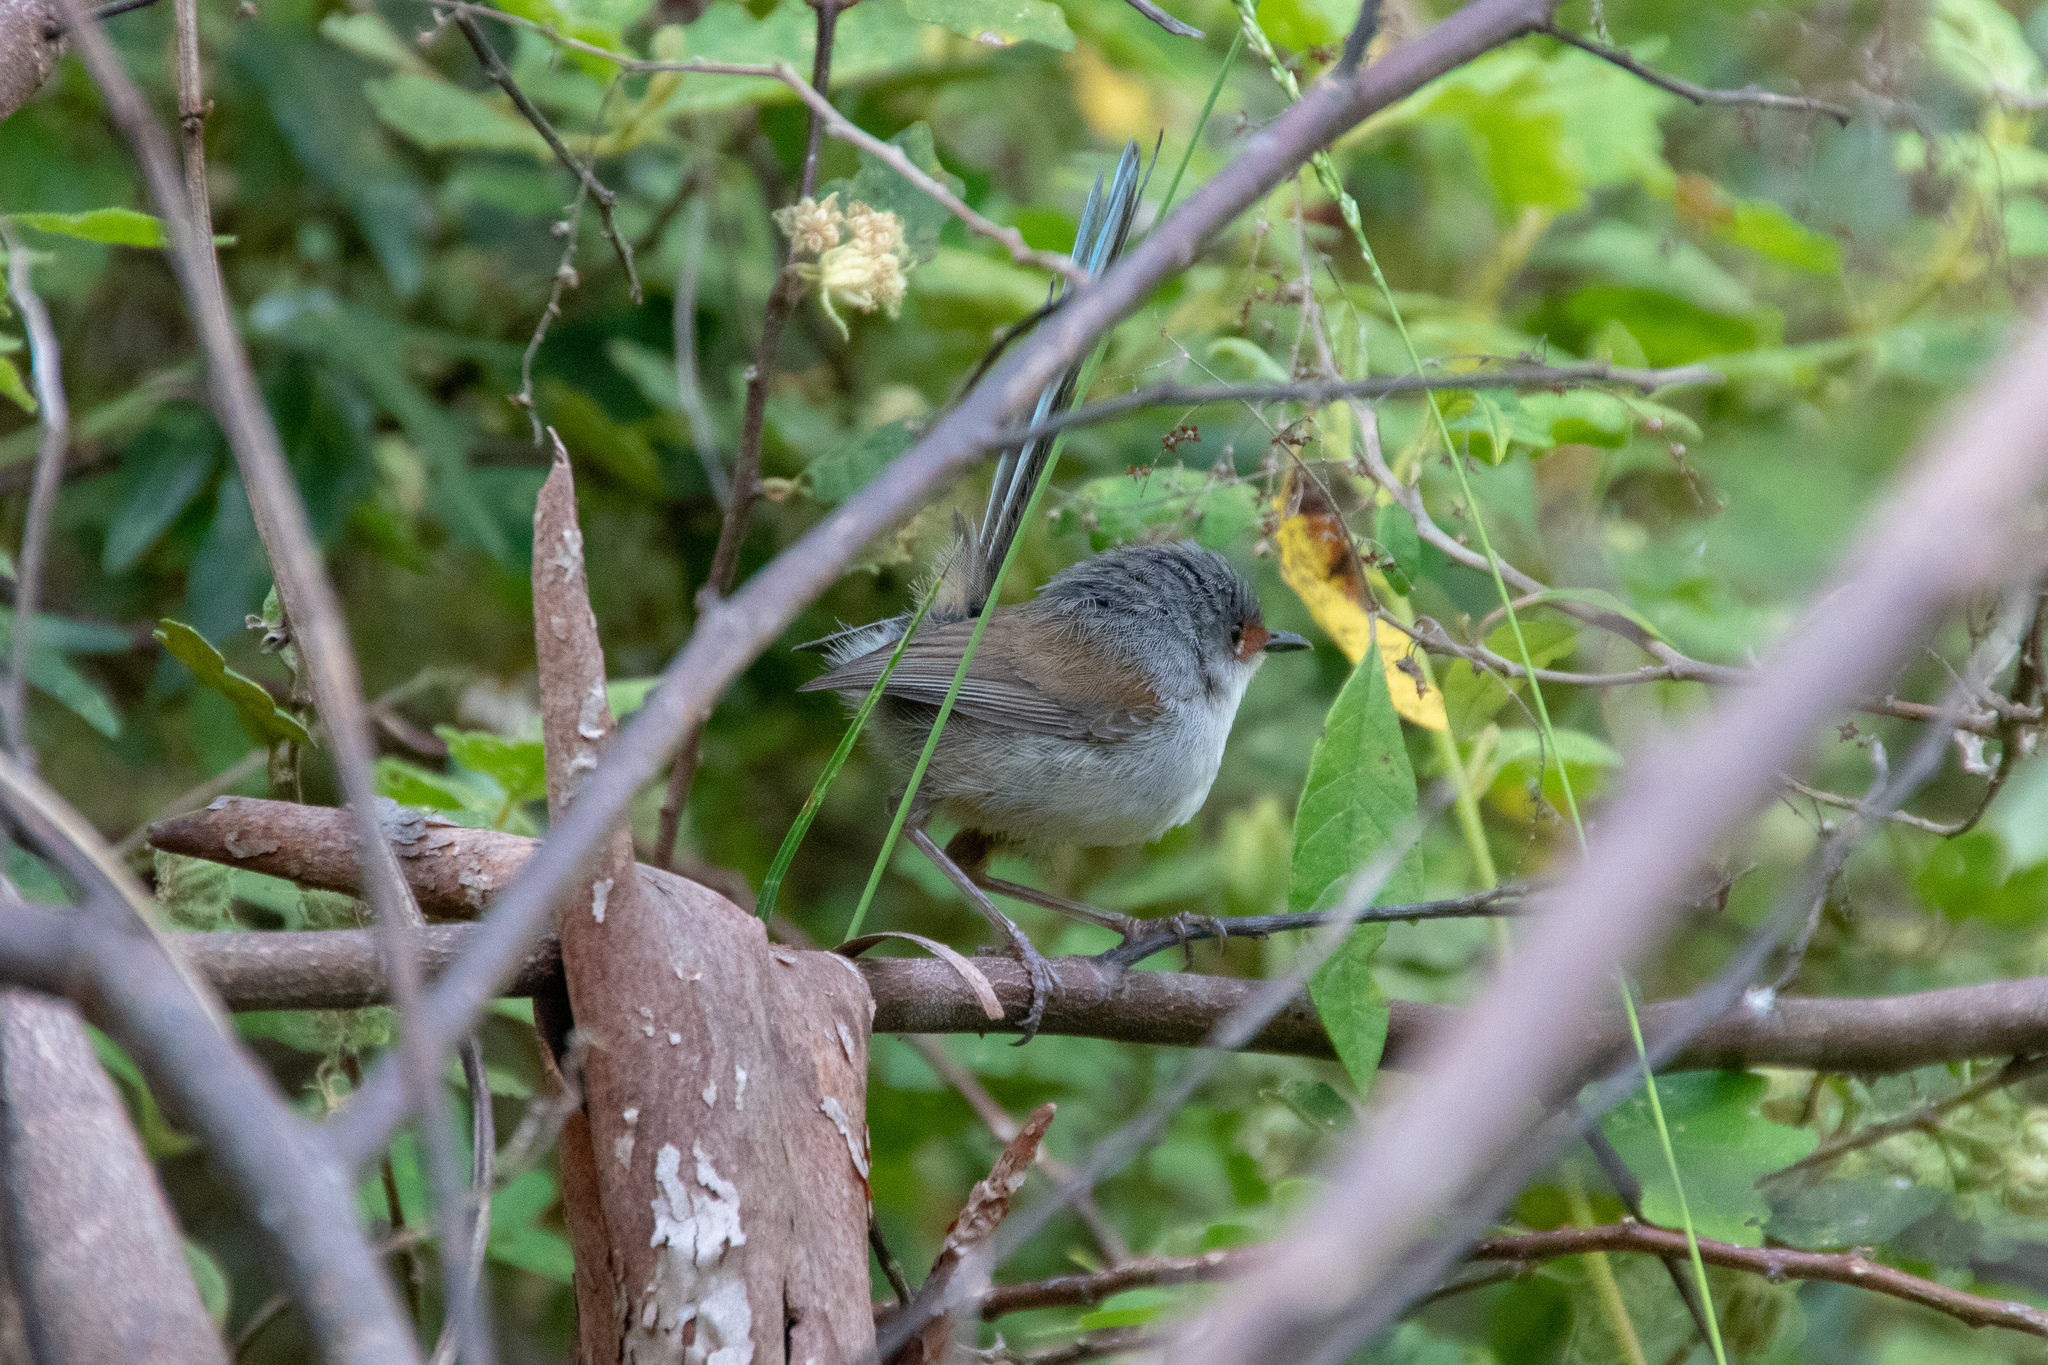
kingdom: Animalia
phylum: Chordata
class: Aves
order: Passeriformes
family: Maluridae
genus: Malurus
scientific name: Malurus elegans
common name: Red-winged fairywren
